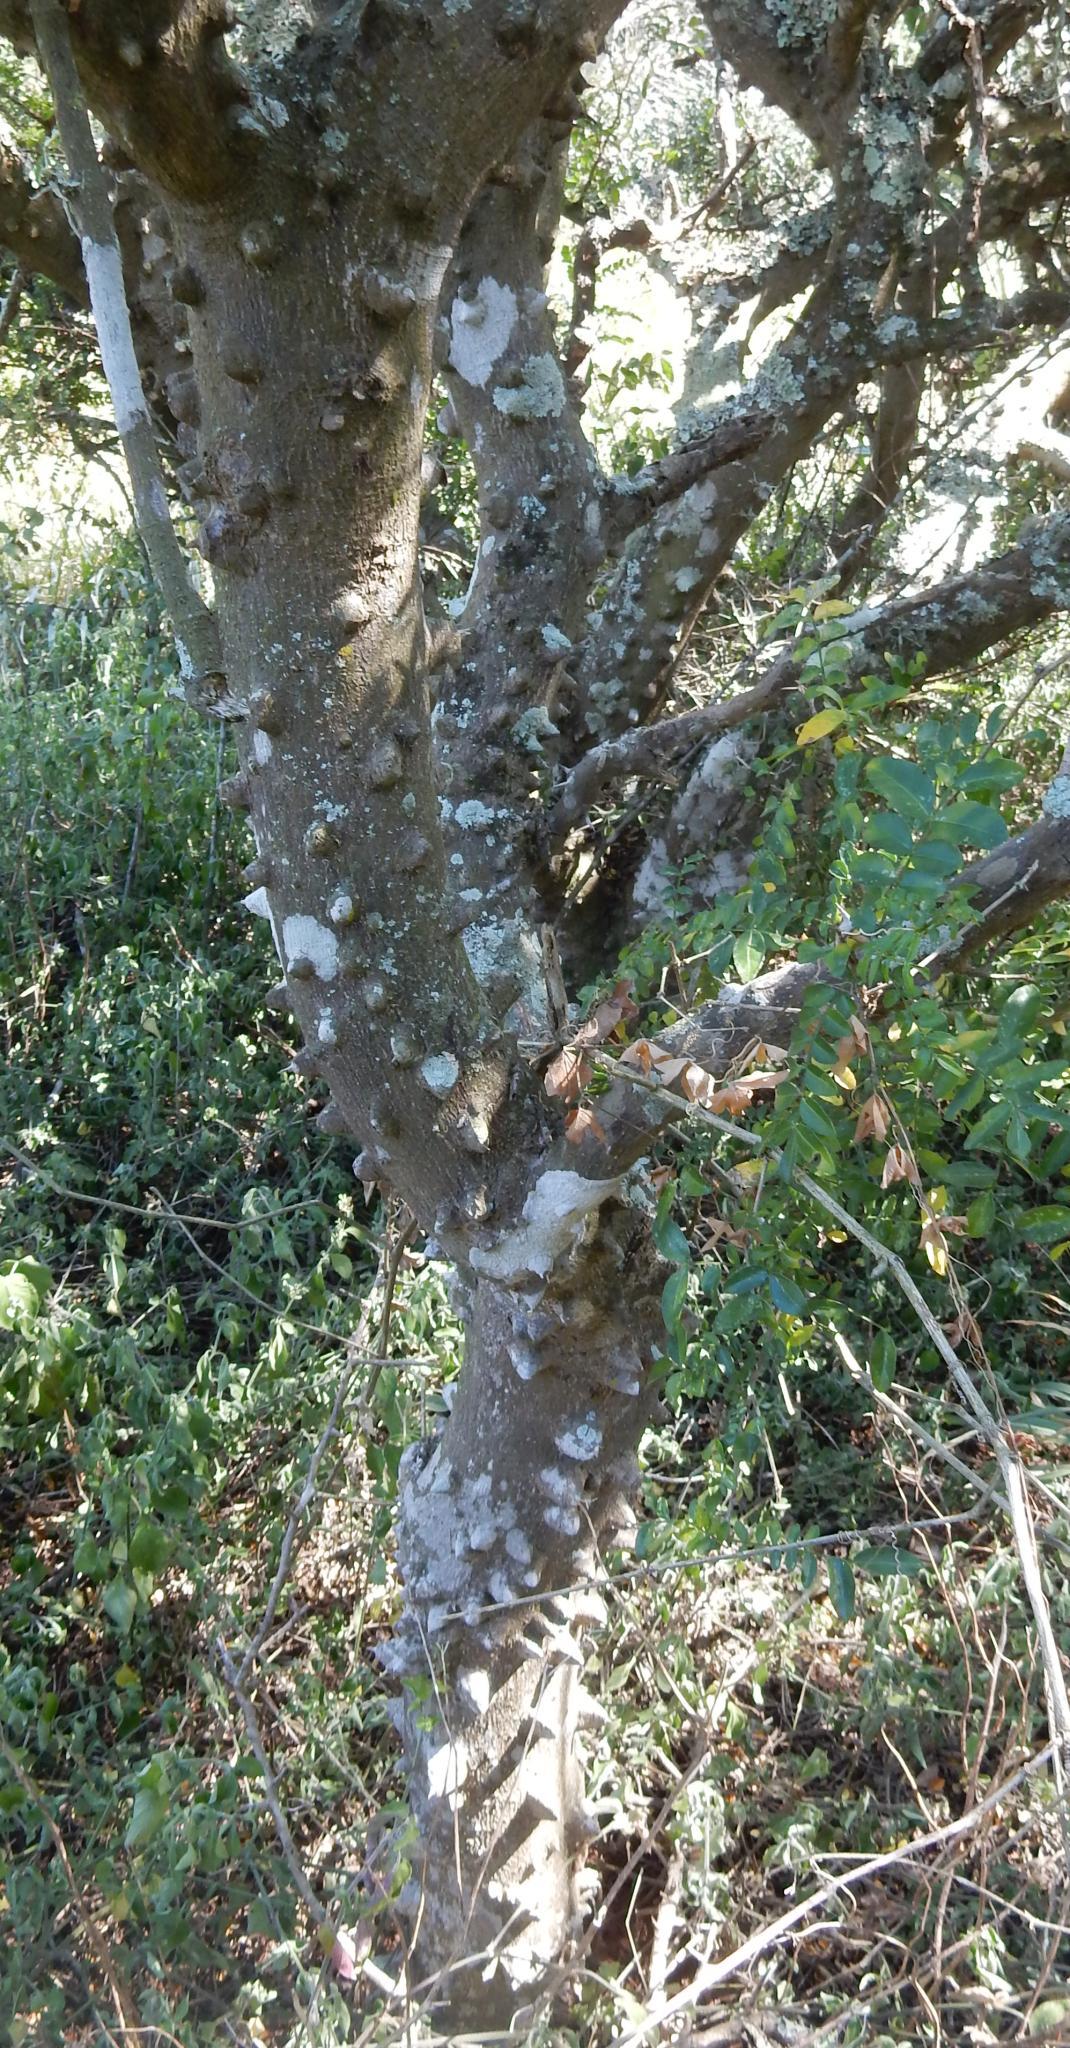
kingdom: Plantae
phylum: Tracheophyta
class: Magnoliopsida
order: Sapindales
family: Rutaceae
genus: Zanthoxylum
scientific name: Zanthoxylum capense
